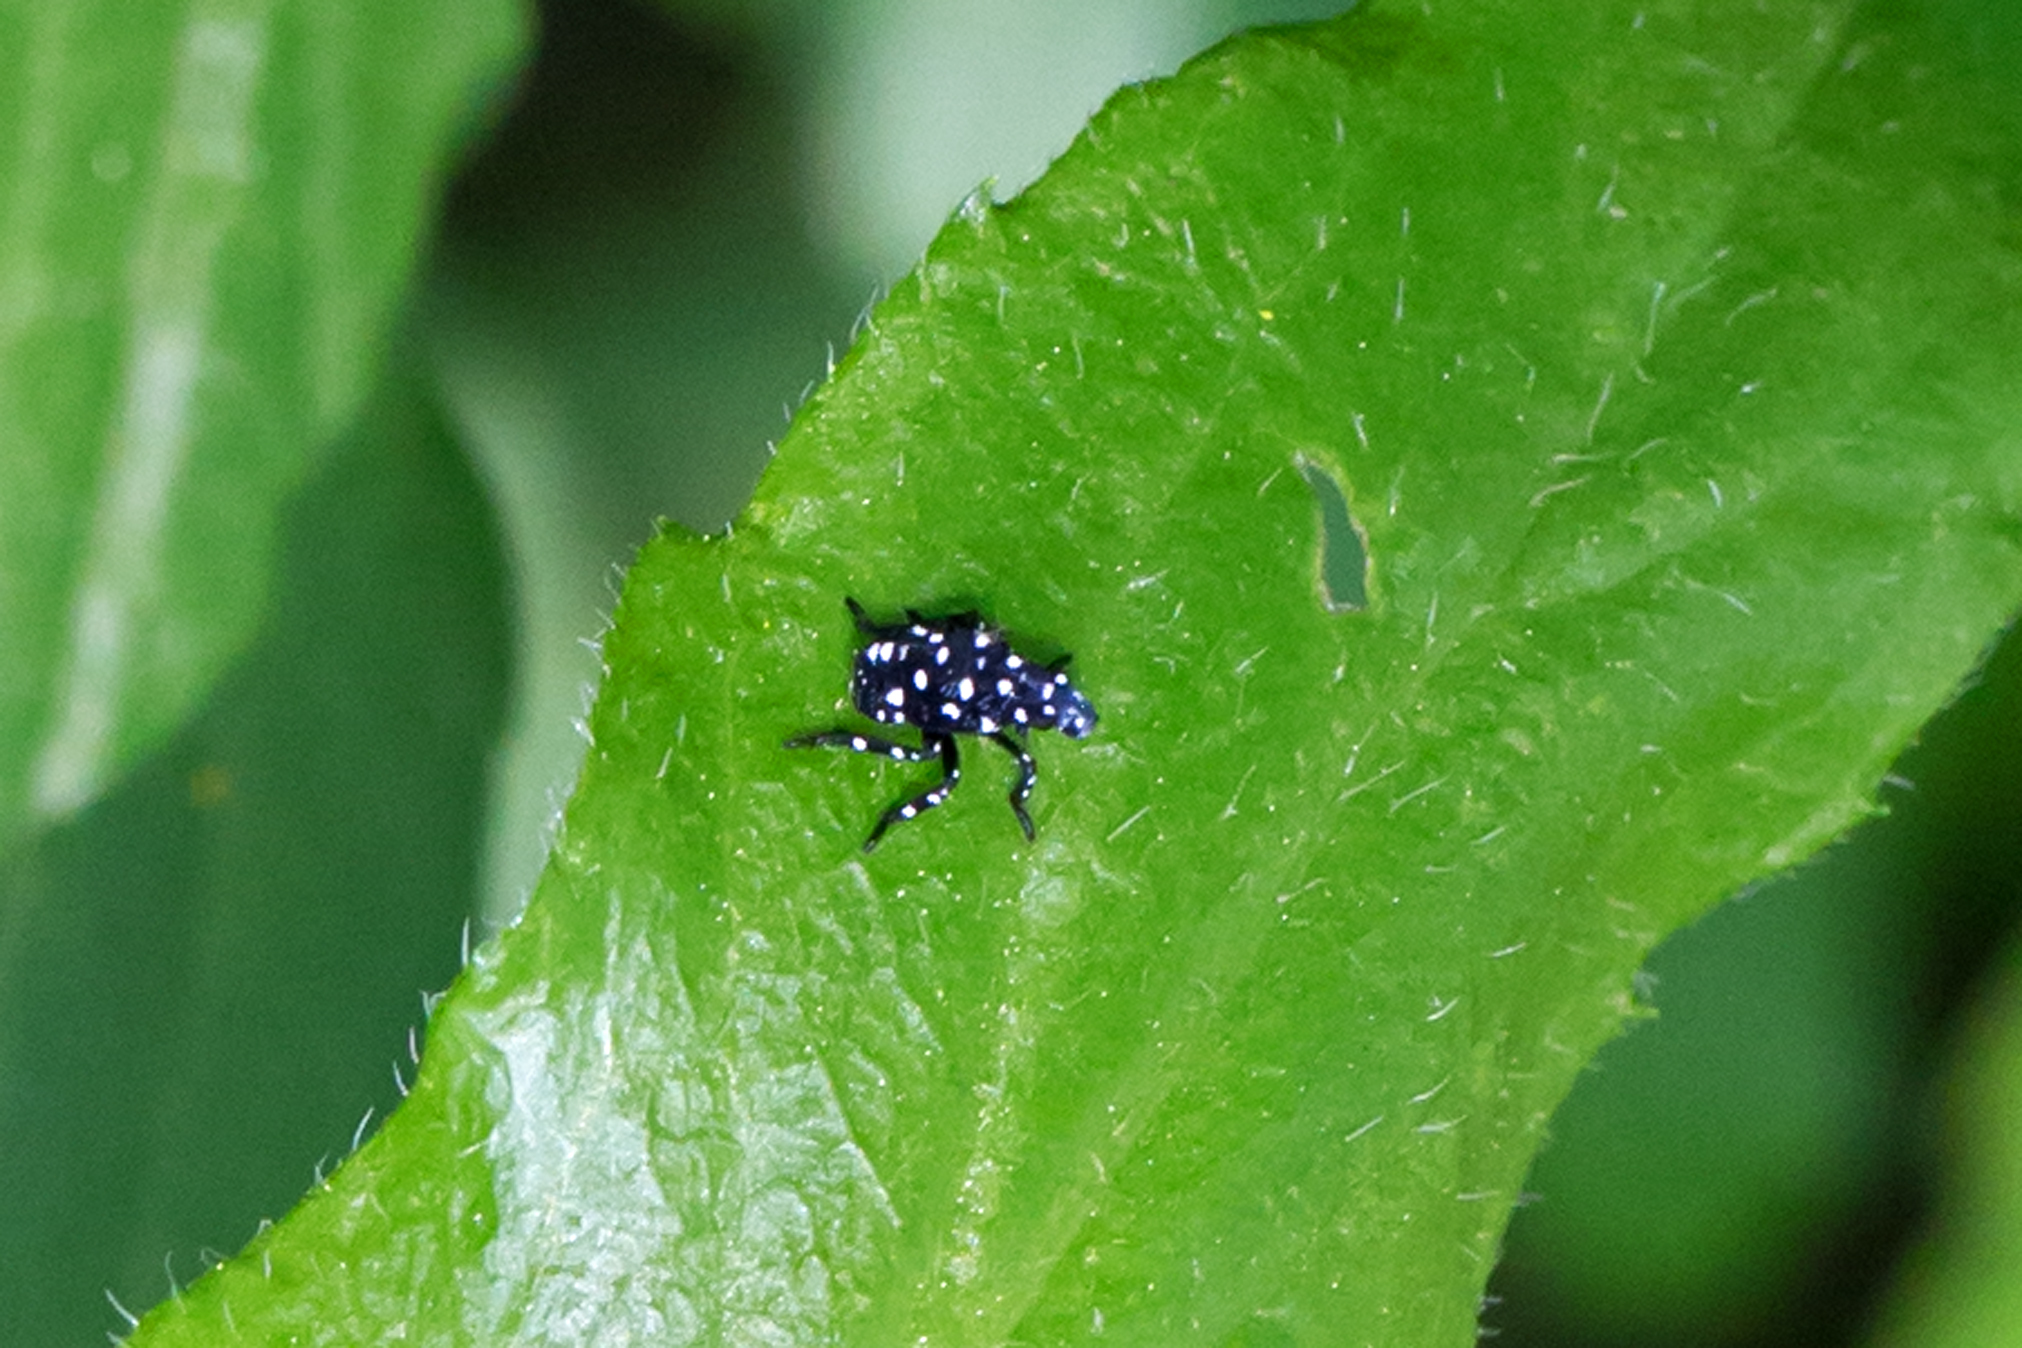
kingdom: Animalia
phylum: Arthropoda
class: Insecta
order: Hemiptera
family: Fulgoridae
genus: Lycorma
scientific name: Lycorma delicatula
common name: Spotted lanternfly
